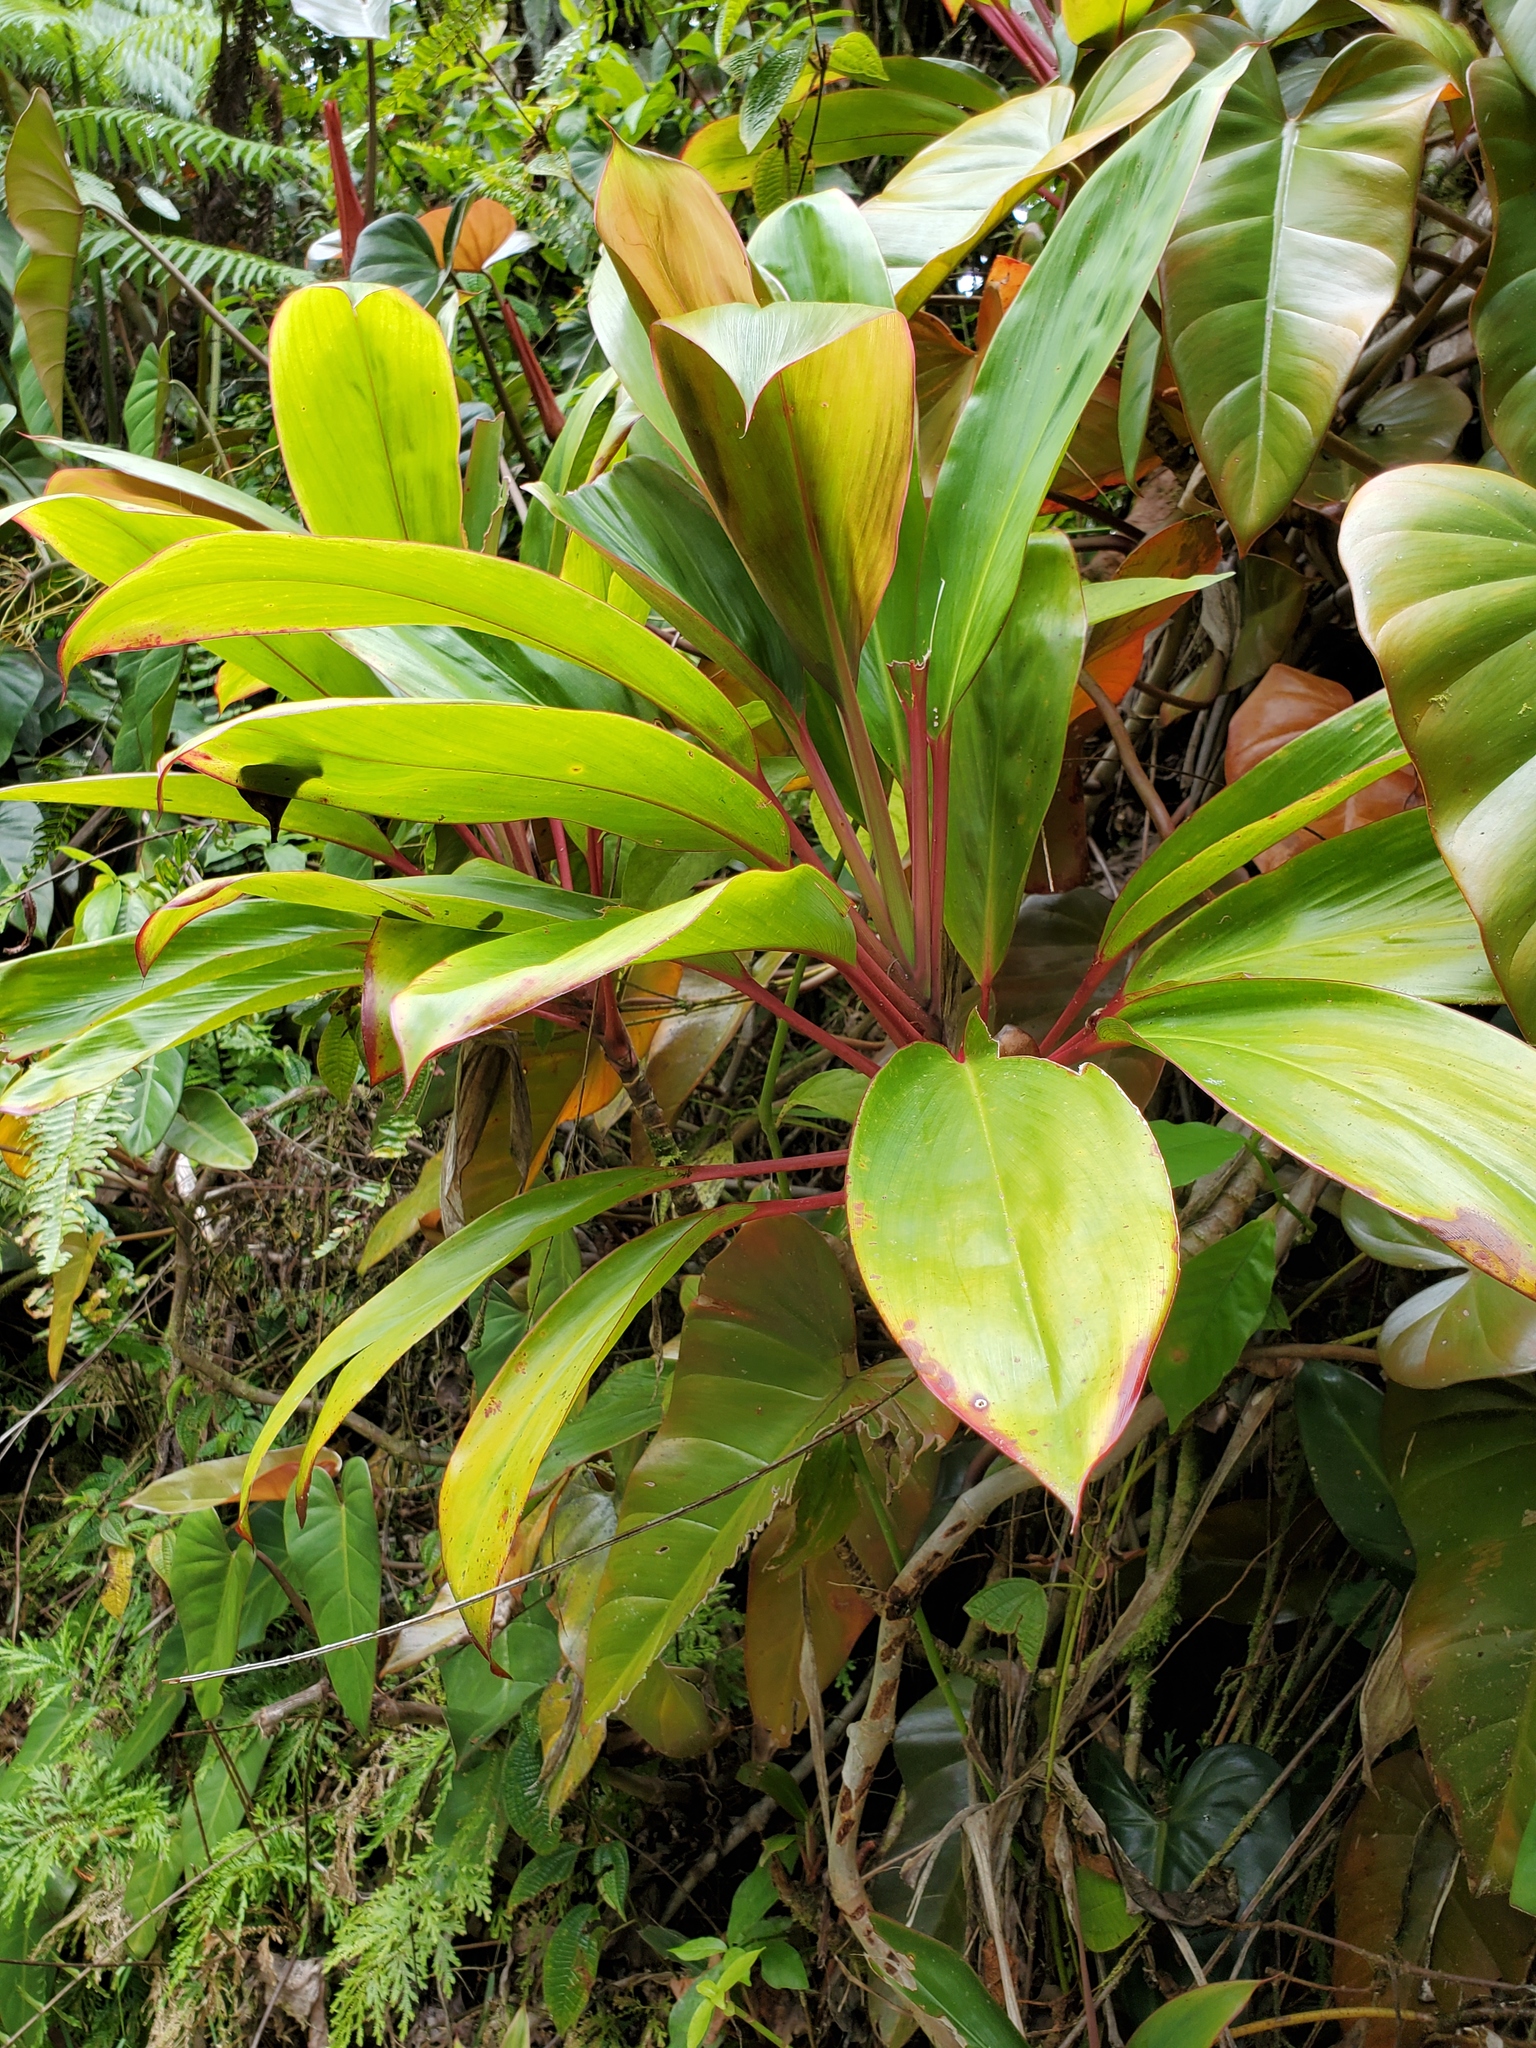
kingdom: Plantae
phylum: Tracheophyta
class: Liliopsida
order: Asparagales
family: Asparagaceae
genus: Cordyline
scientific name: Cordyline fruticosa
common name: Good-luck-plant
